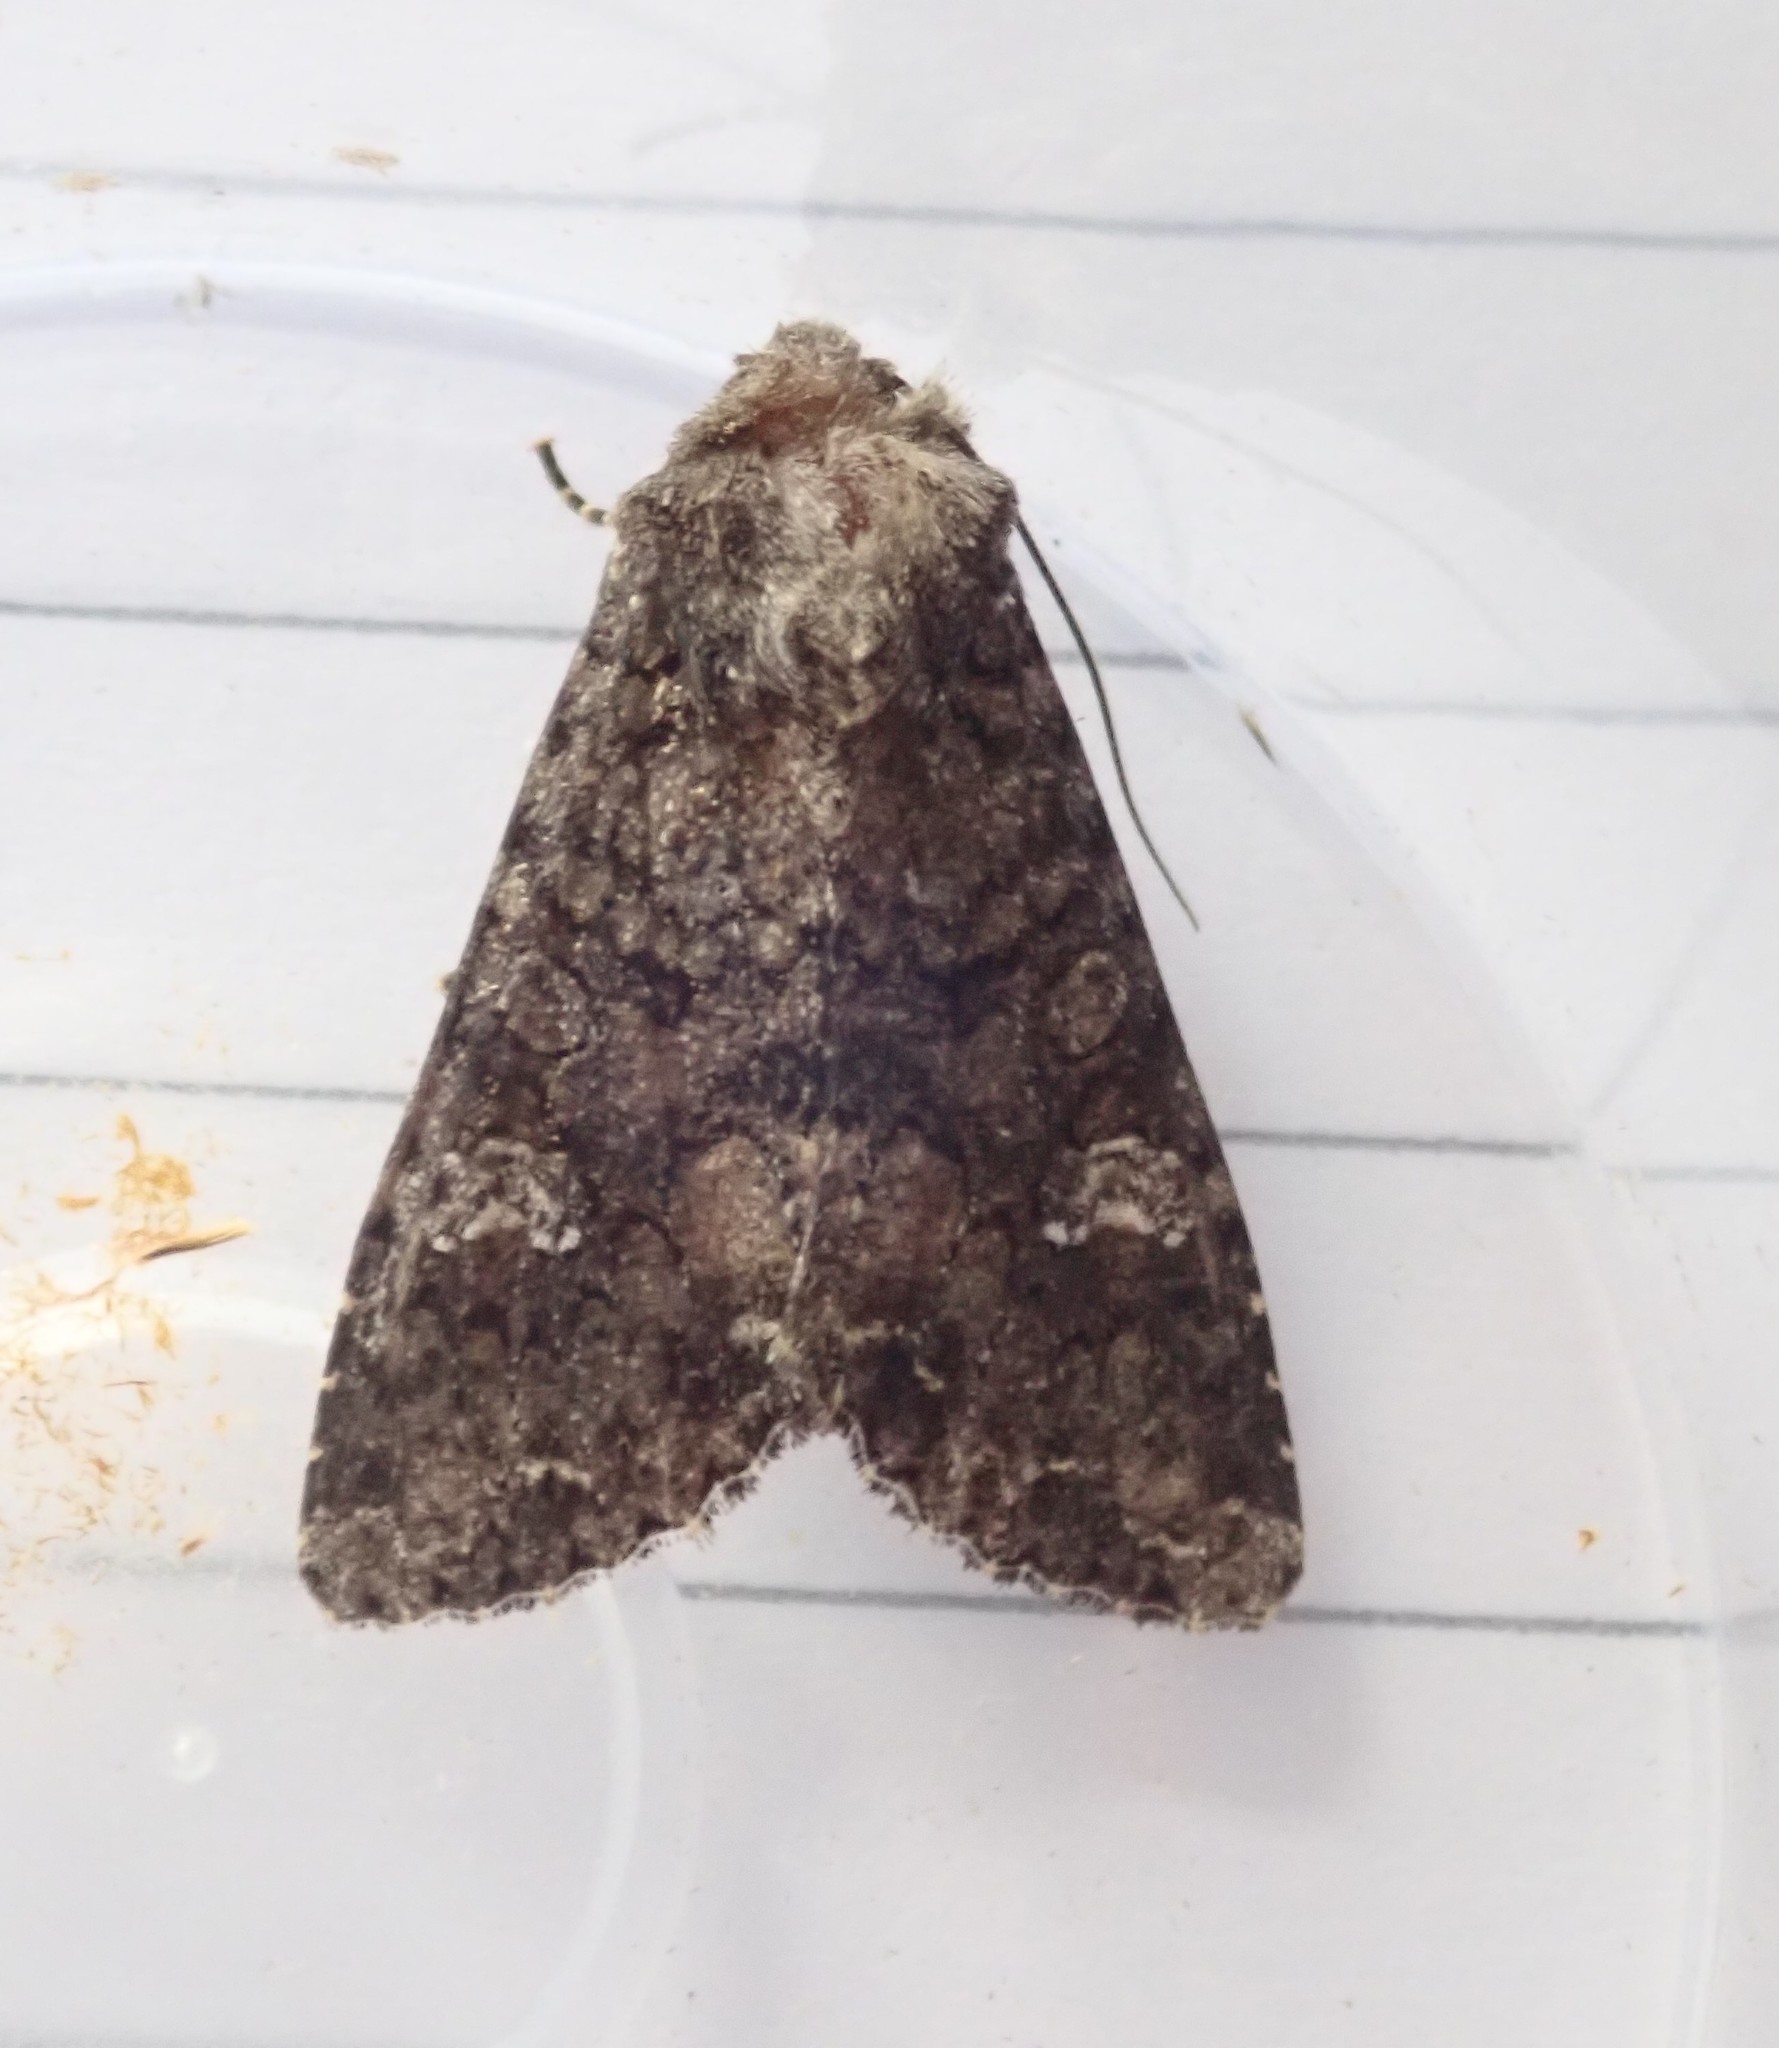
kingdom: Animalia
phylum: Arthropoda
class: Insecta
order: Lepidoptera
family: Noctuidae
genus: Mamestra
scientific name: Mamestra brassicae
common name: Cabbage moth
